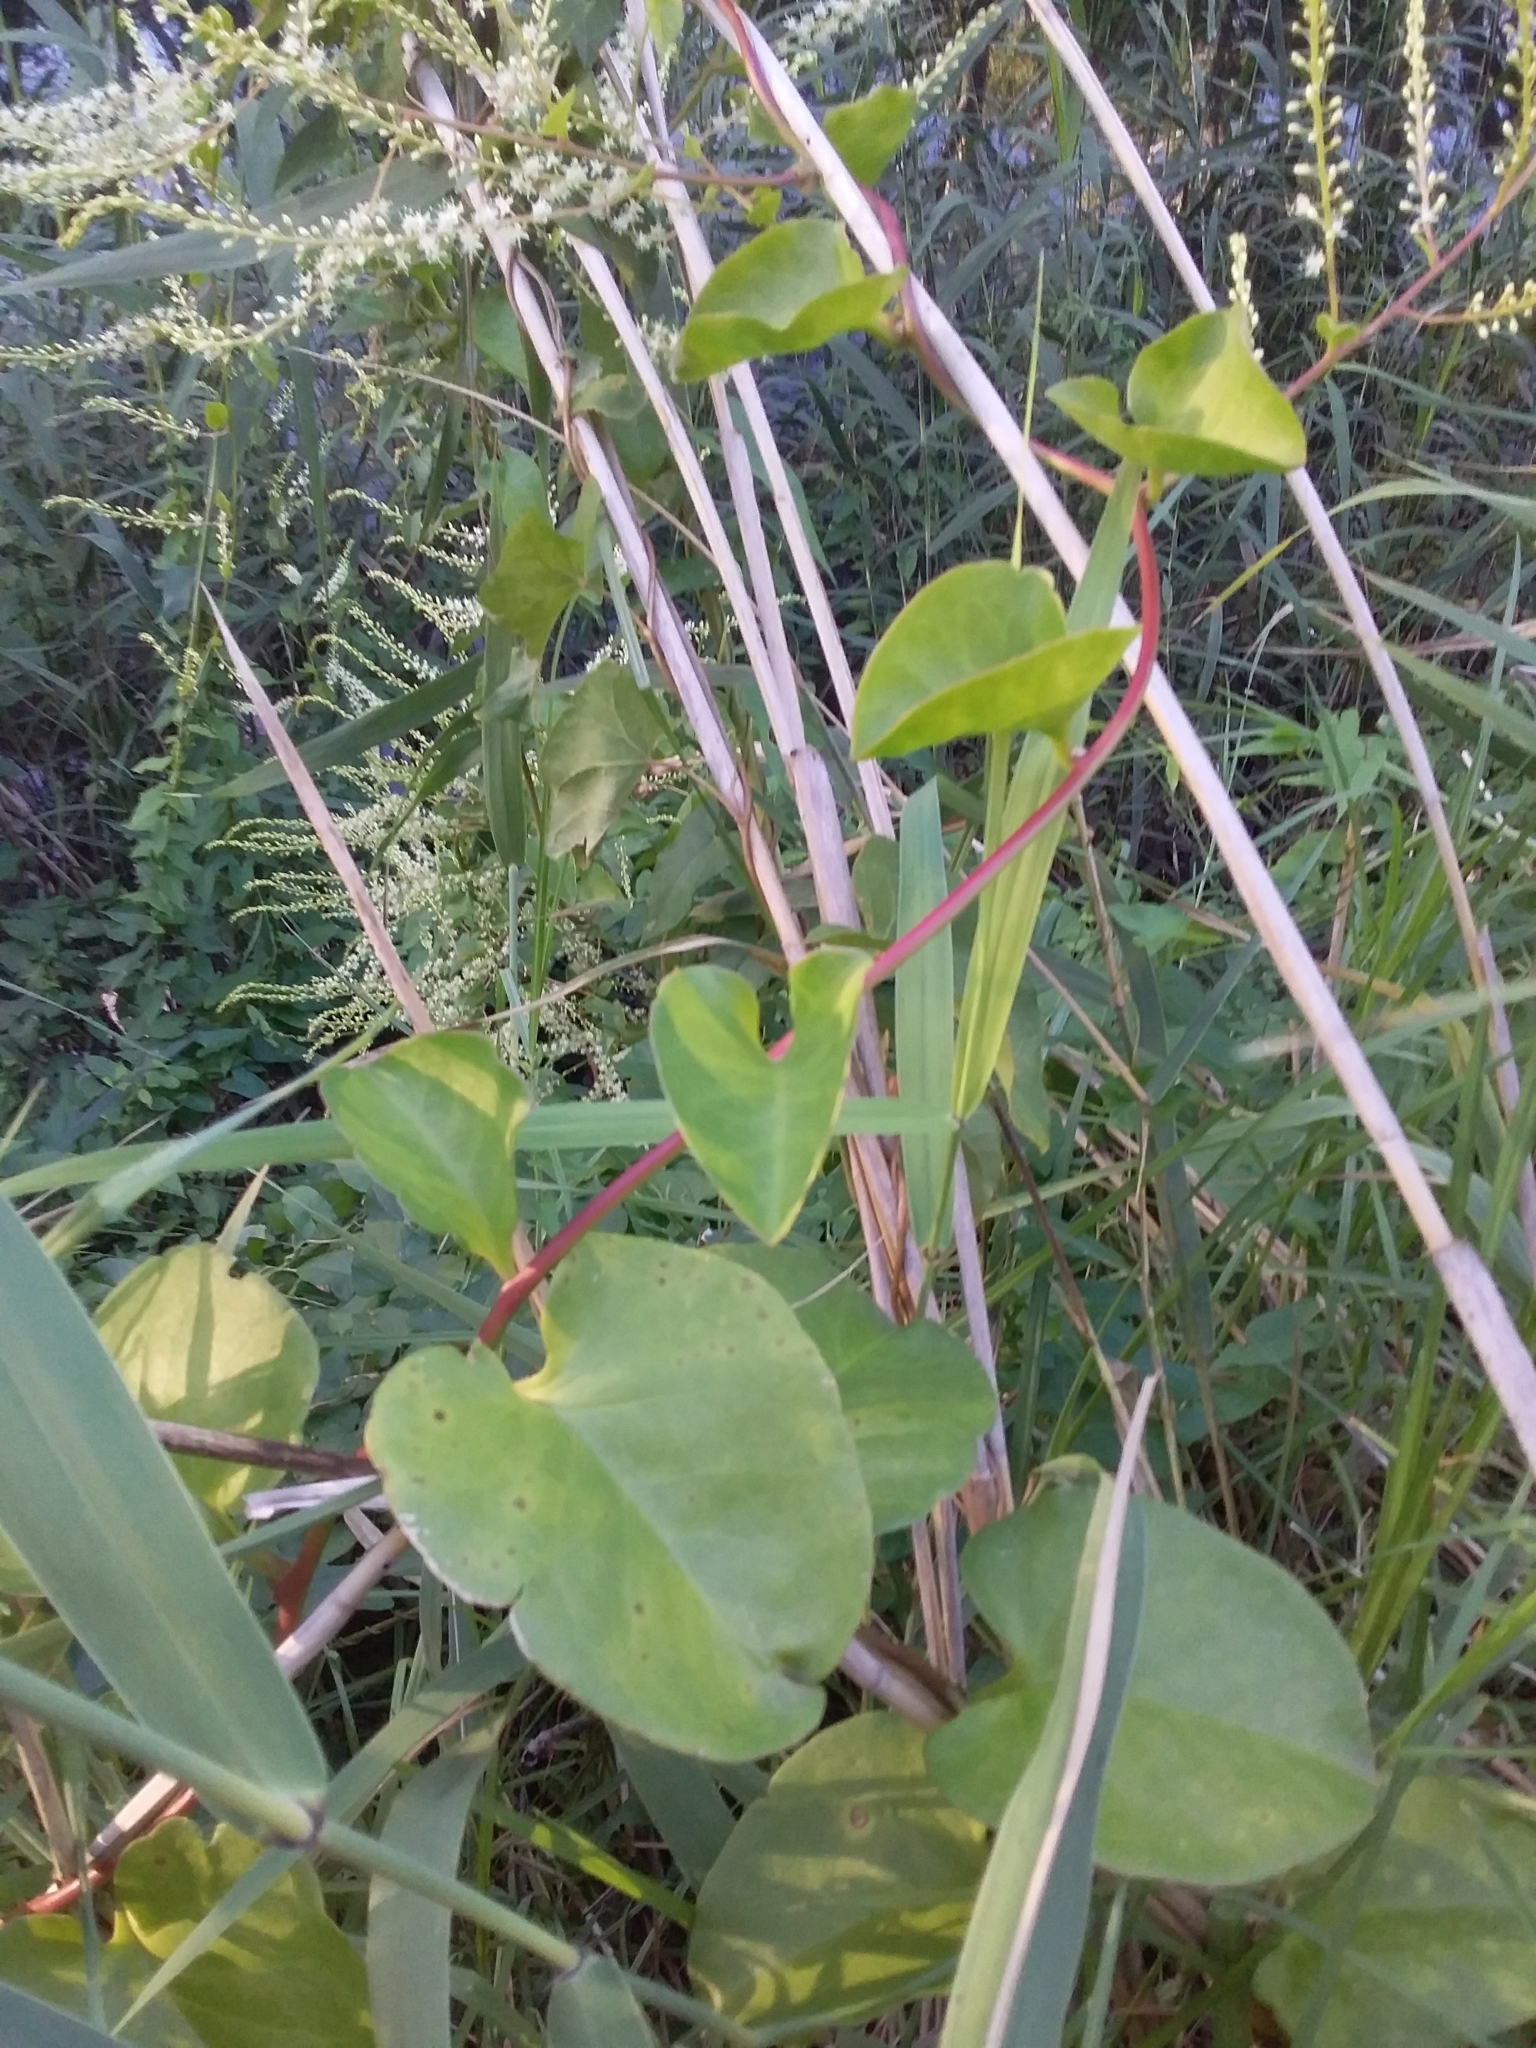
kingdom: Plantae
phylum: Tracheophyta
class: Magnoliopsida
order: Caryophyllales
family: Basellaceae
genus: Anredera
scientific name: Anredera cordifolia
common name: Heartleaf madeiravine
